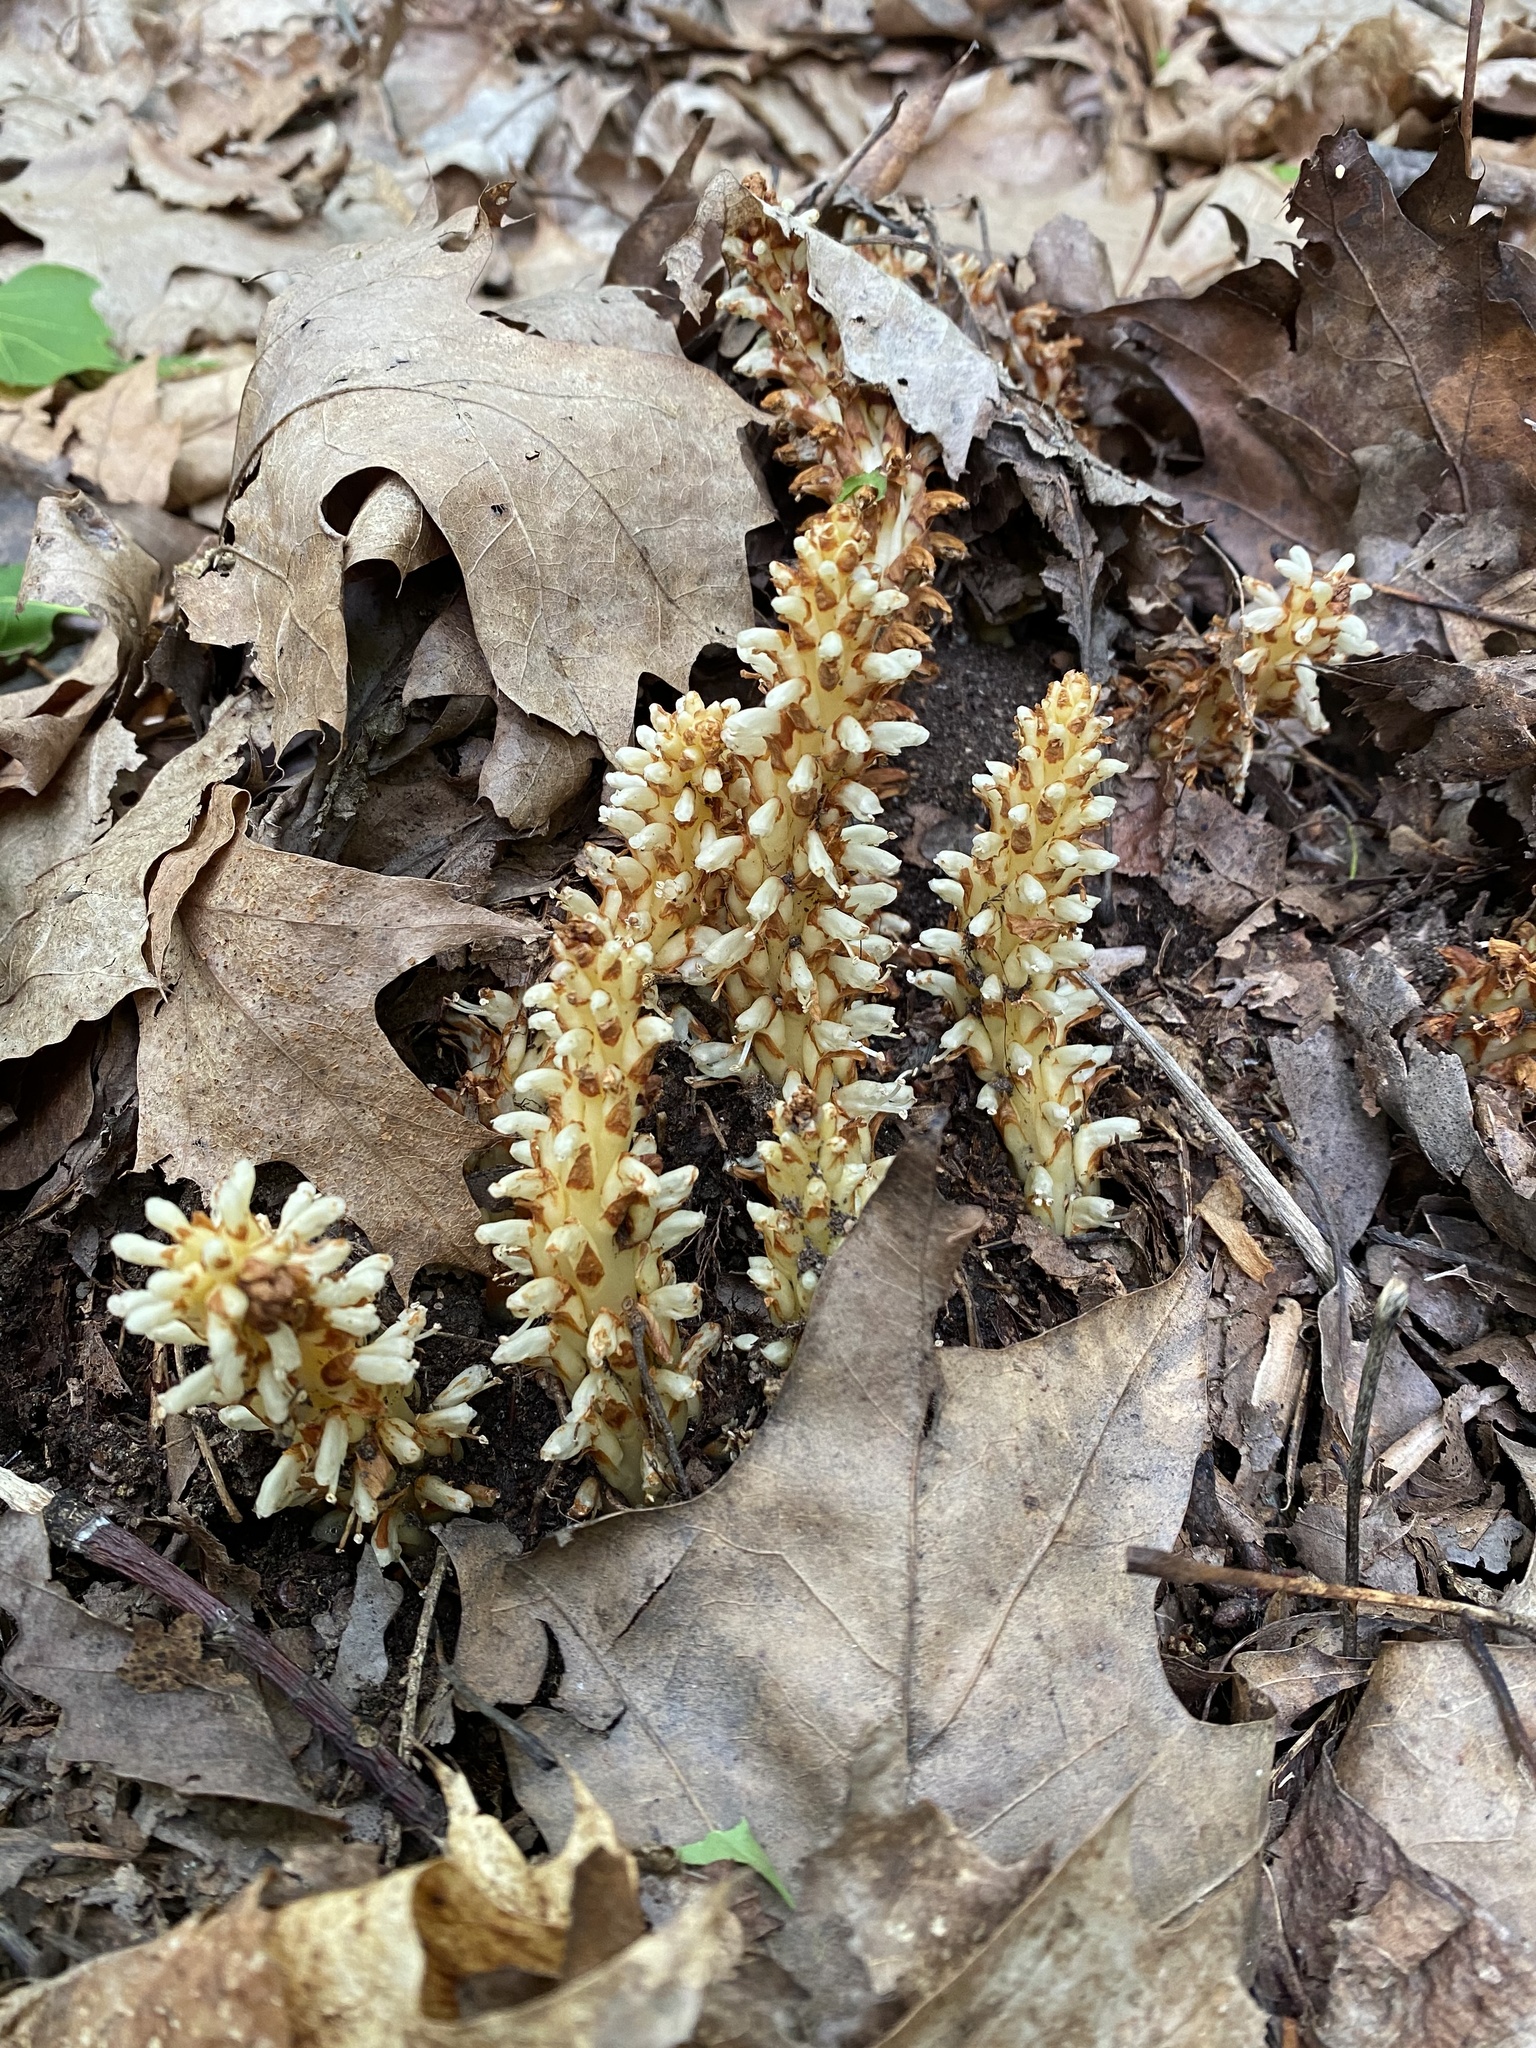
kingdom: Plantae
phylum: Tracheophyta
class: Magnoliopsida
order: Lamiales
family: Orobanchaceae
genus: Conopholis
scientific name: Conopholis americana
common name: American cancer-root
